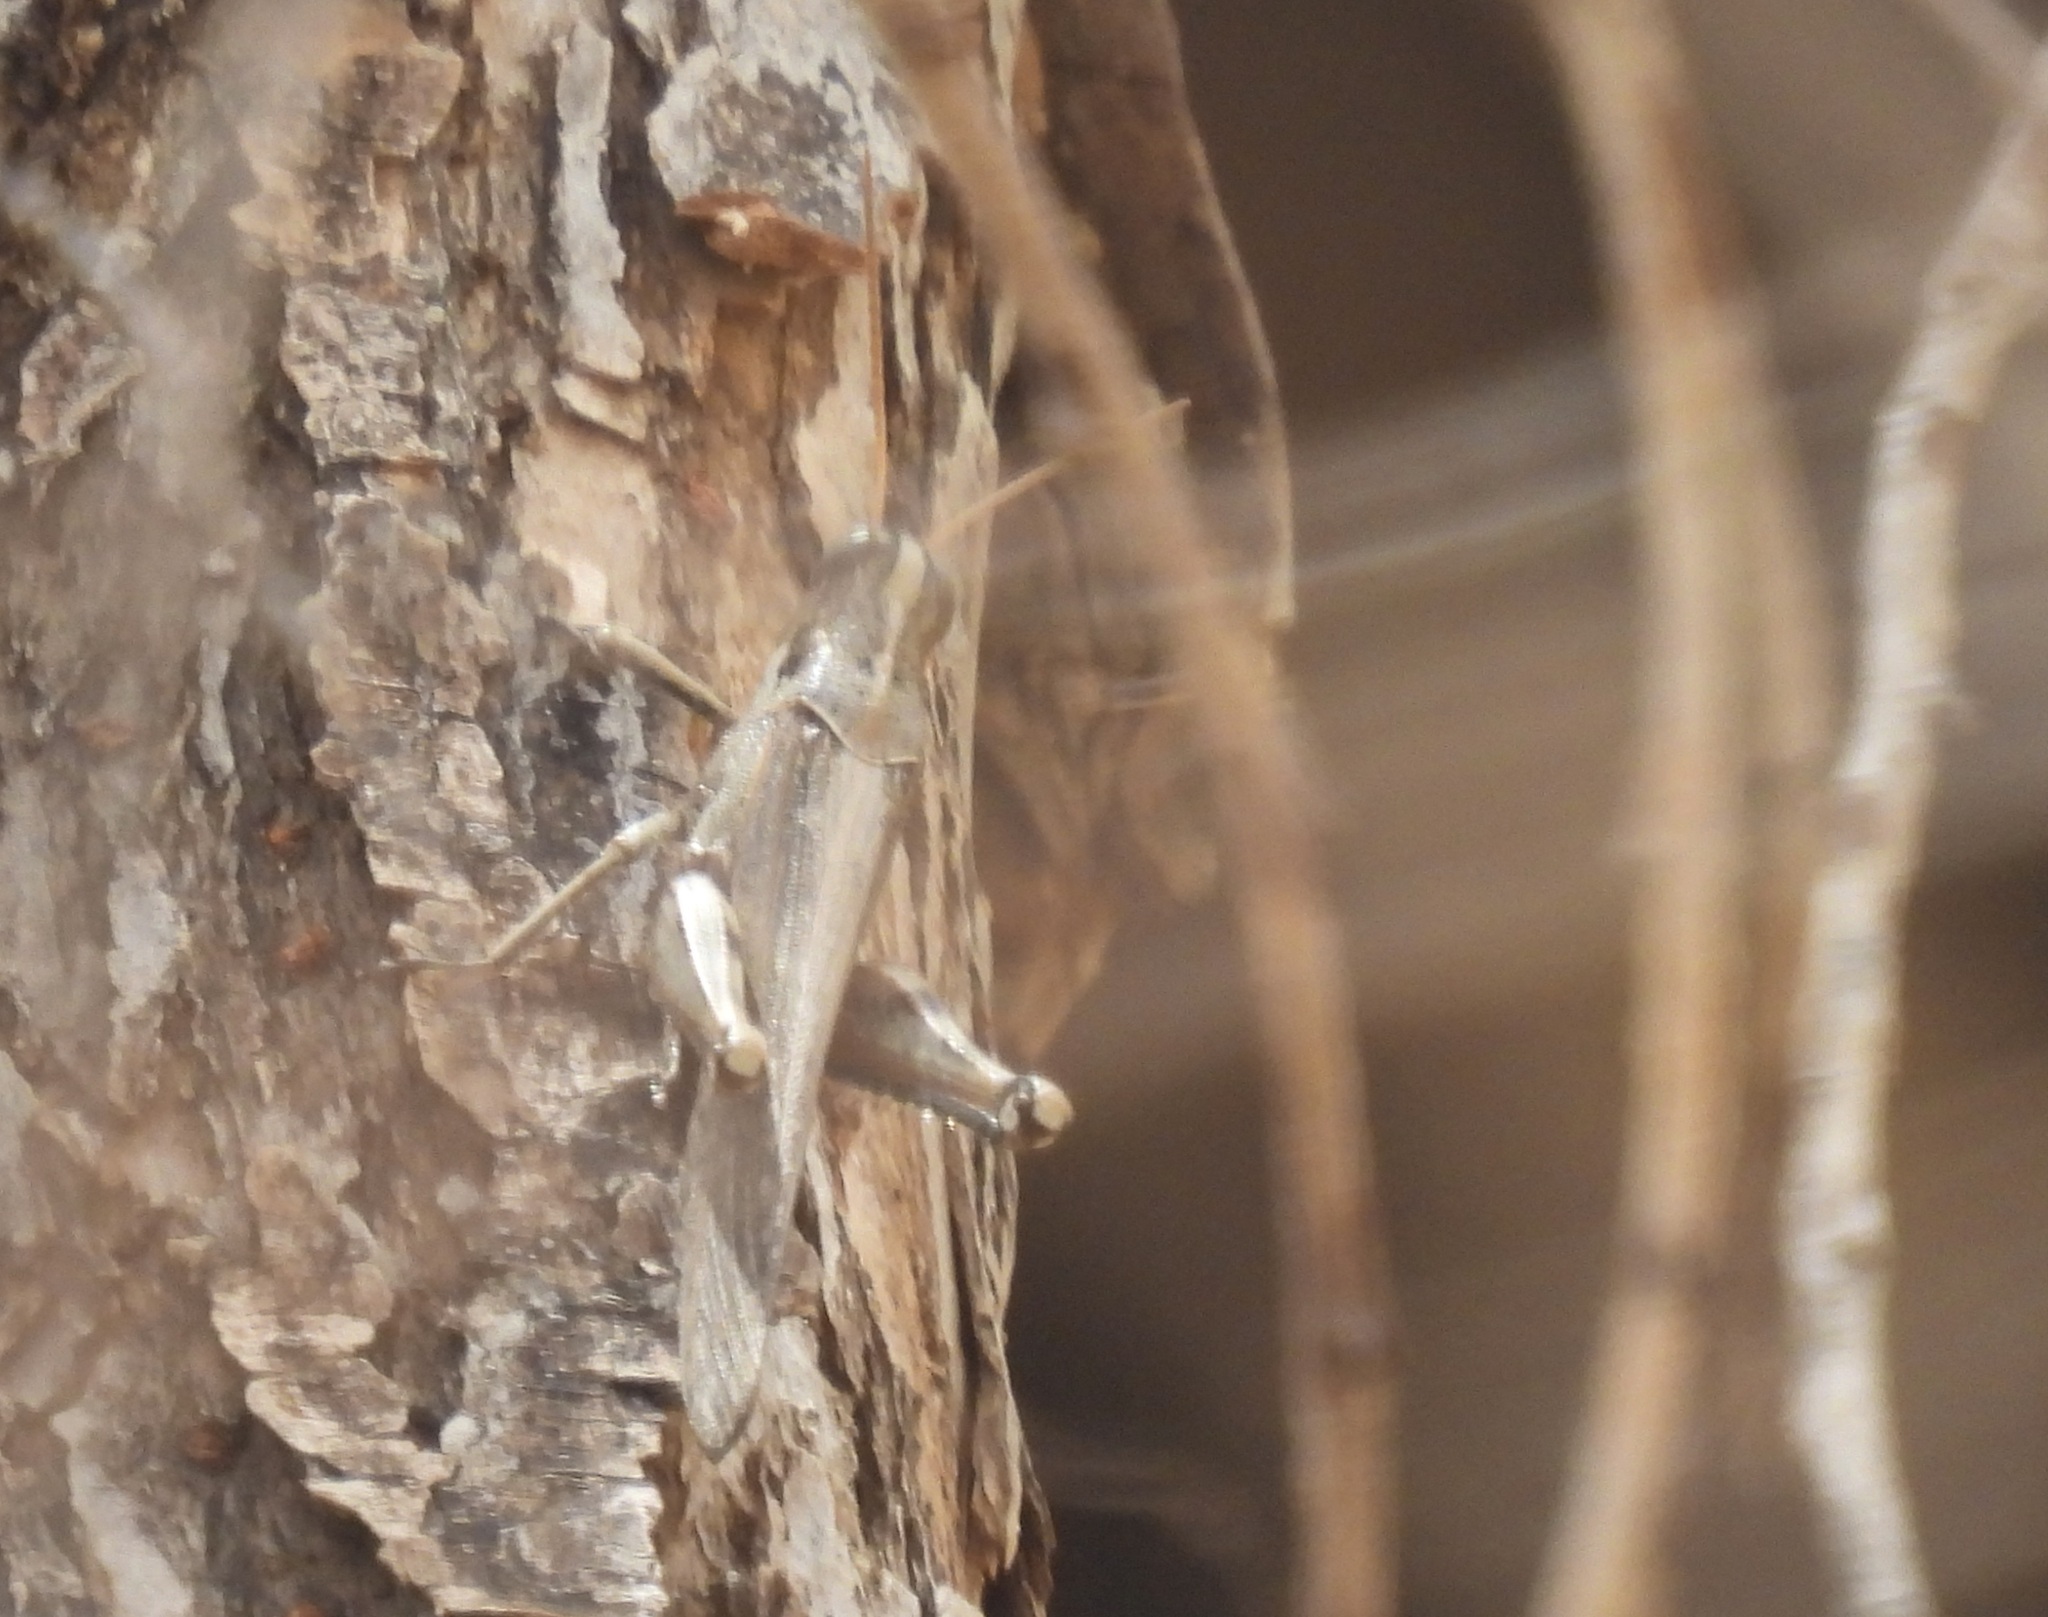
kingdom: Animalia
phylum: Arthropoda
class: Insecta
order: Orthoptera
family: Acrididae
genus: Schistocerca
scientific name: Schistocerca nitens
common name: Vagrant grasshopper
